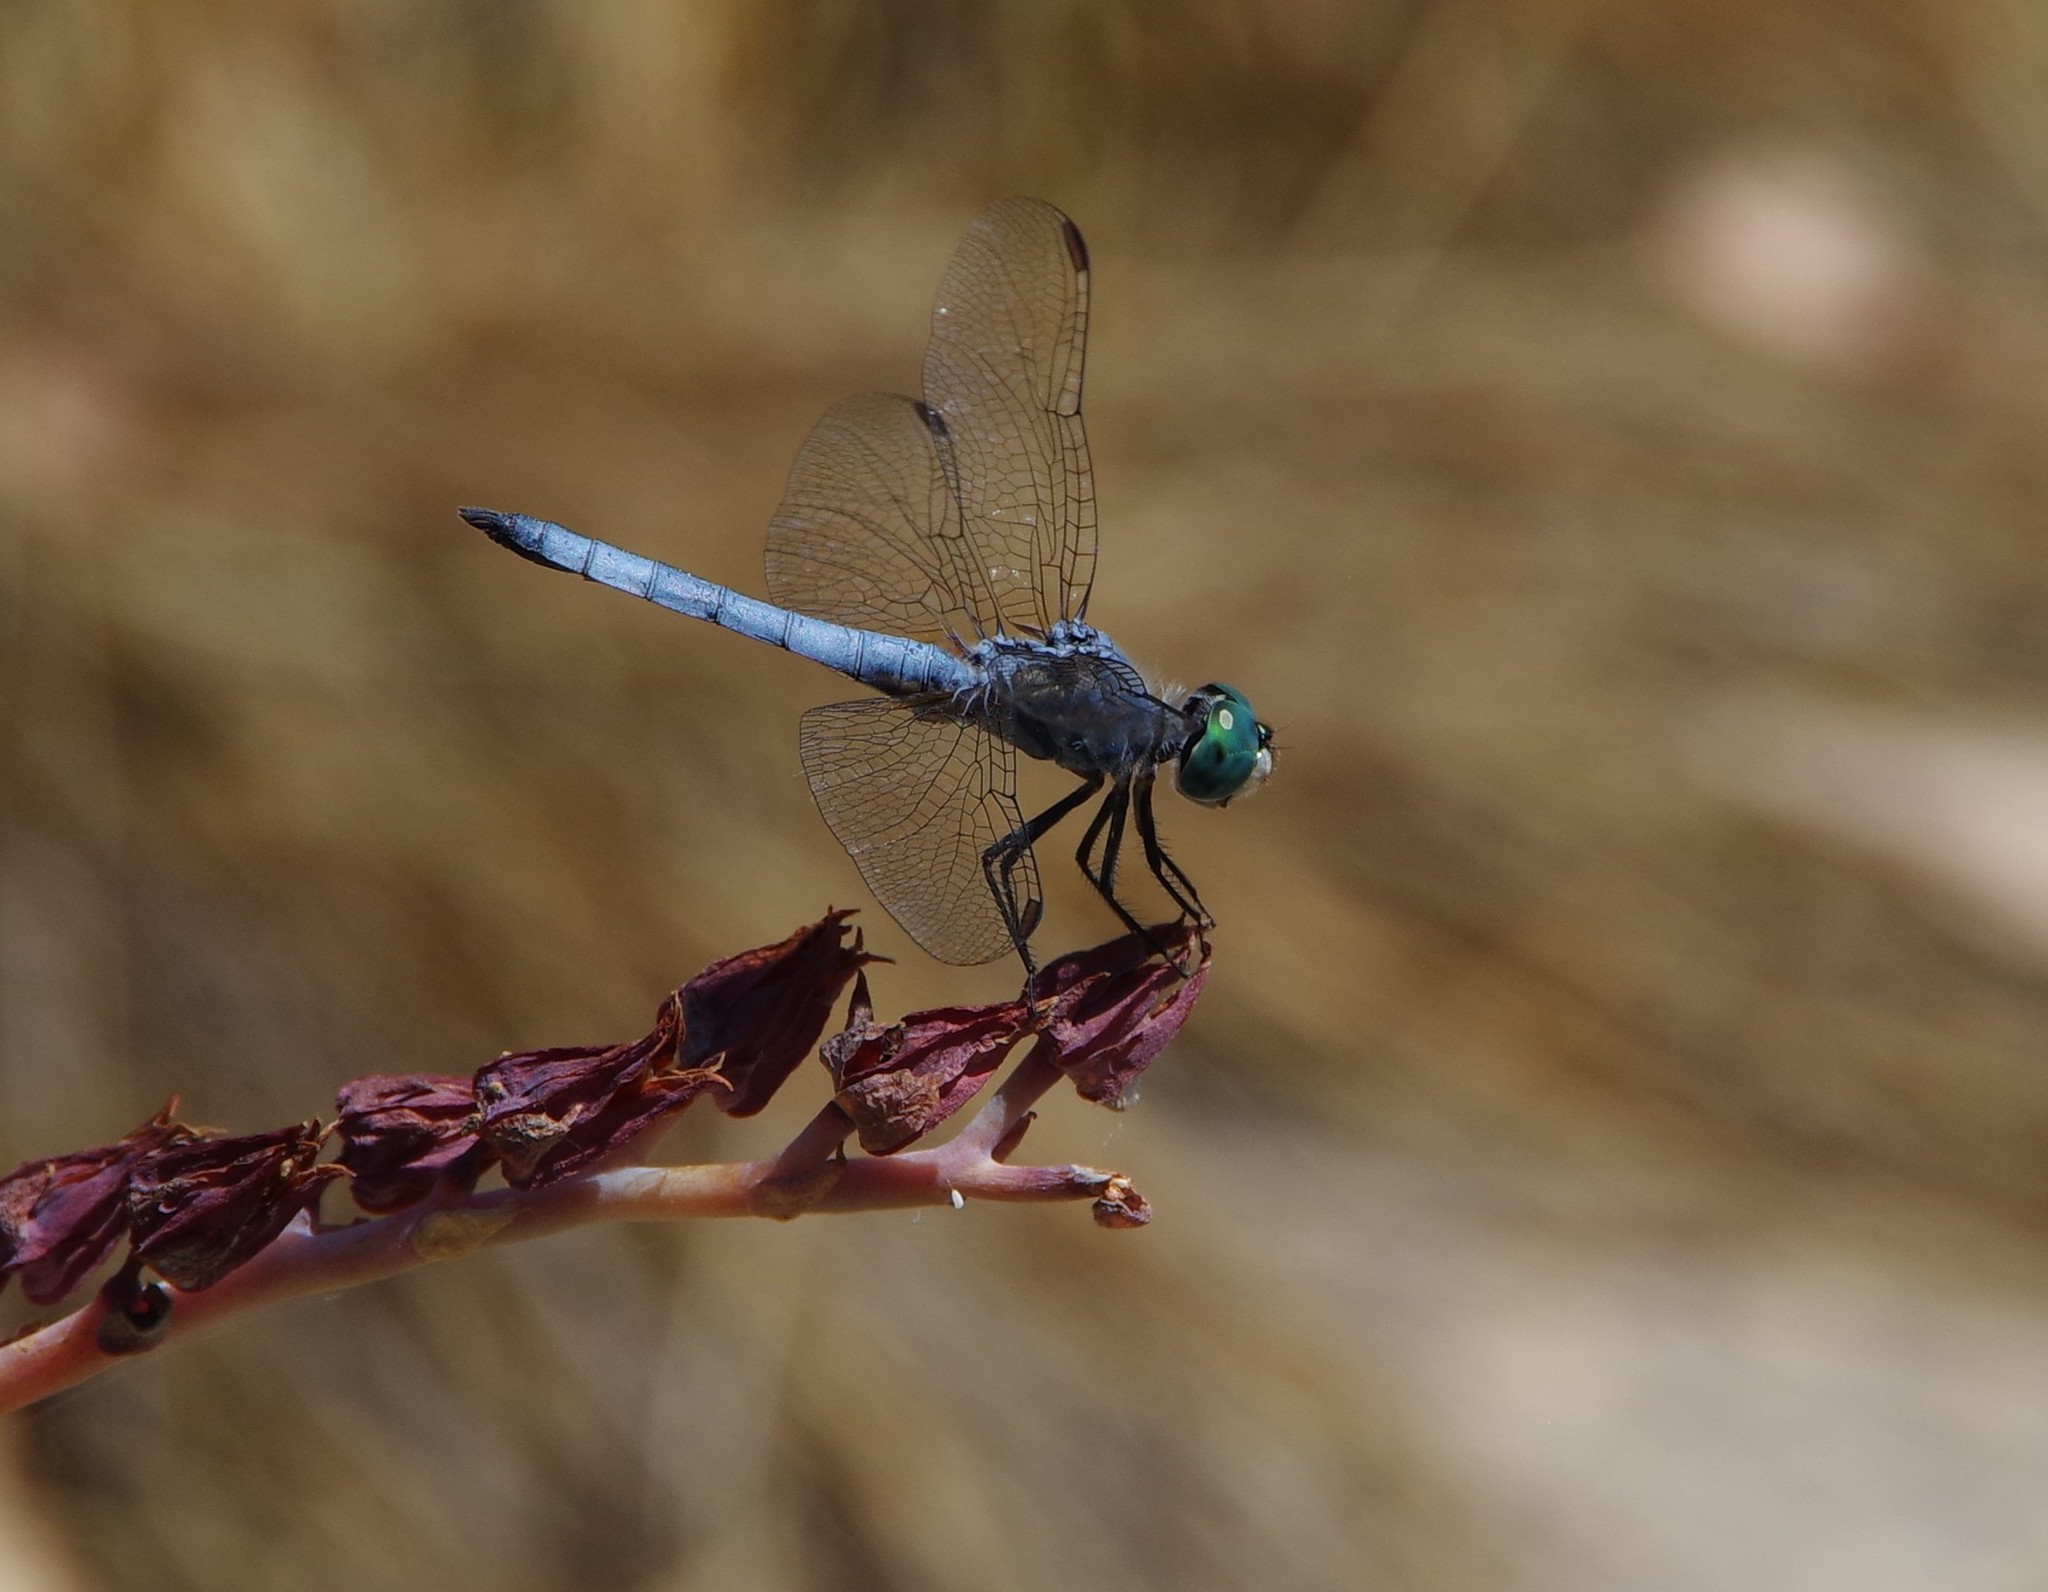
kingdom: Animalia
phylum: Arthropoda
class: Insecta
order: Odonata
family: Libellulidae
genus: Pachydiplax
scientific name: Pachydiplax longipennis
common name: Blue dasher
